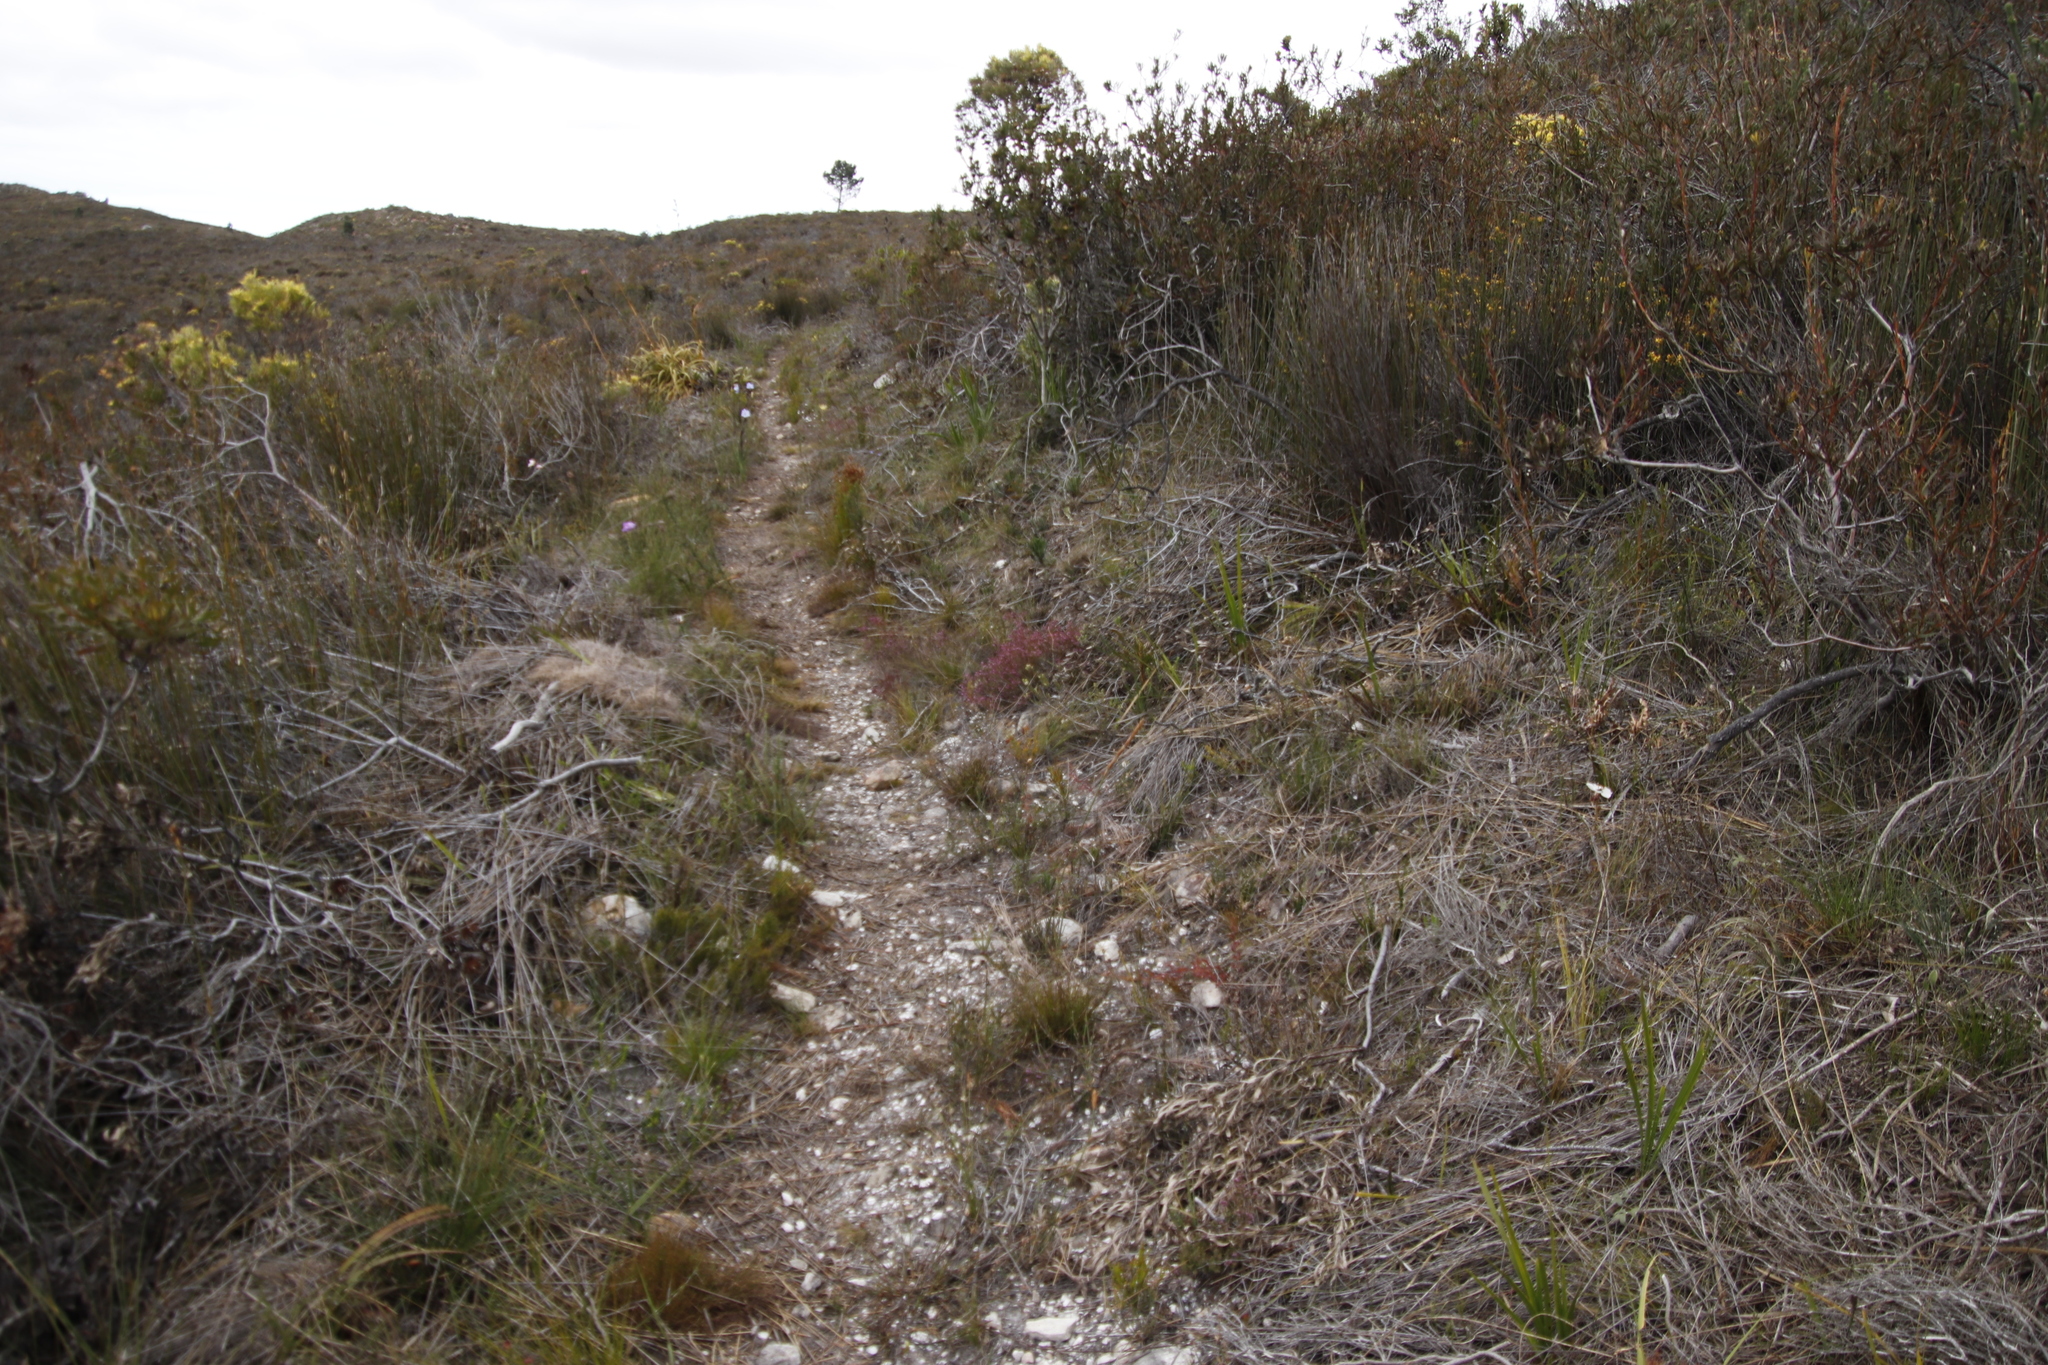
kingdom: Plantae
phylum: Tracheophyta
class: Liliopsida
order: Asparagales
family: Iridaceae
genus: Aristea
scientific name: Aristea spiralis
